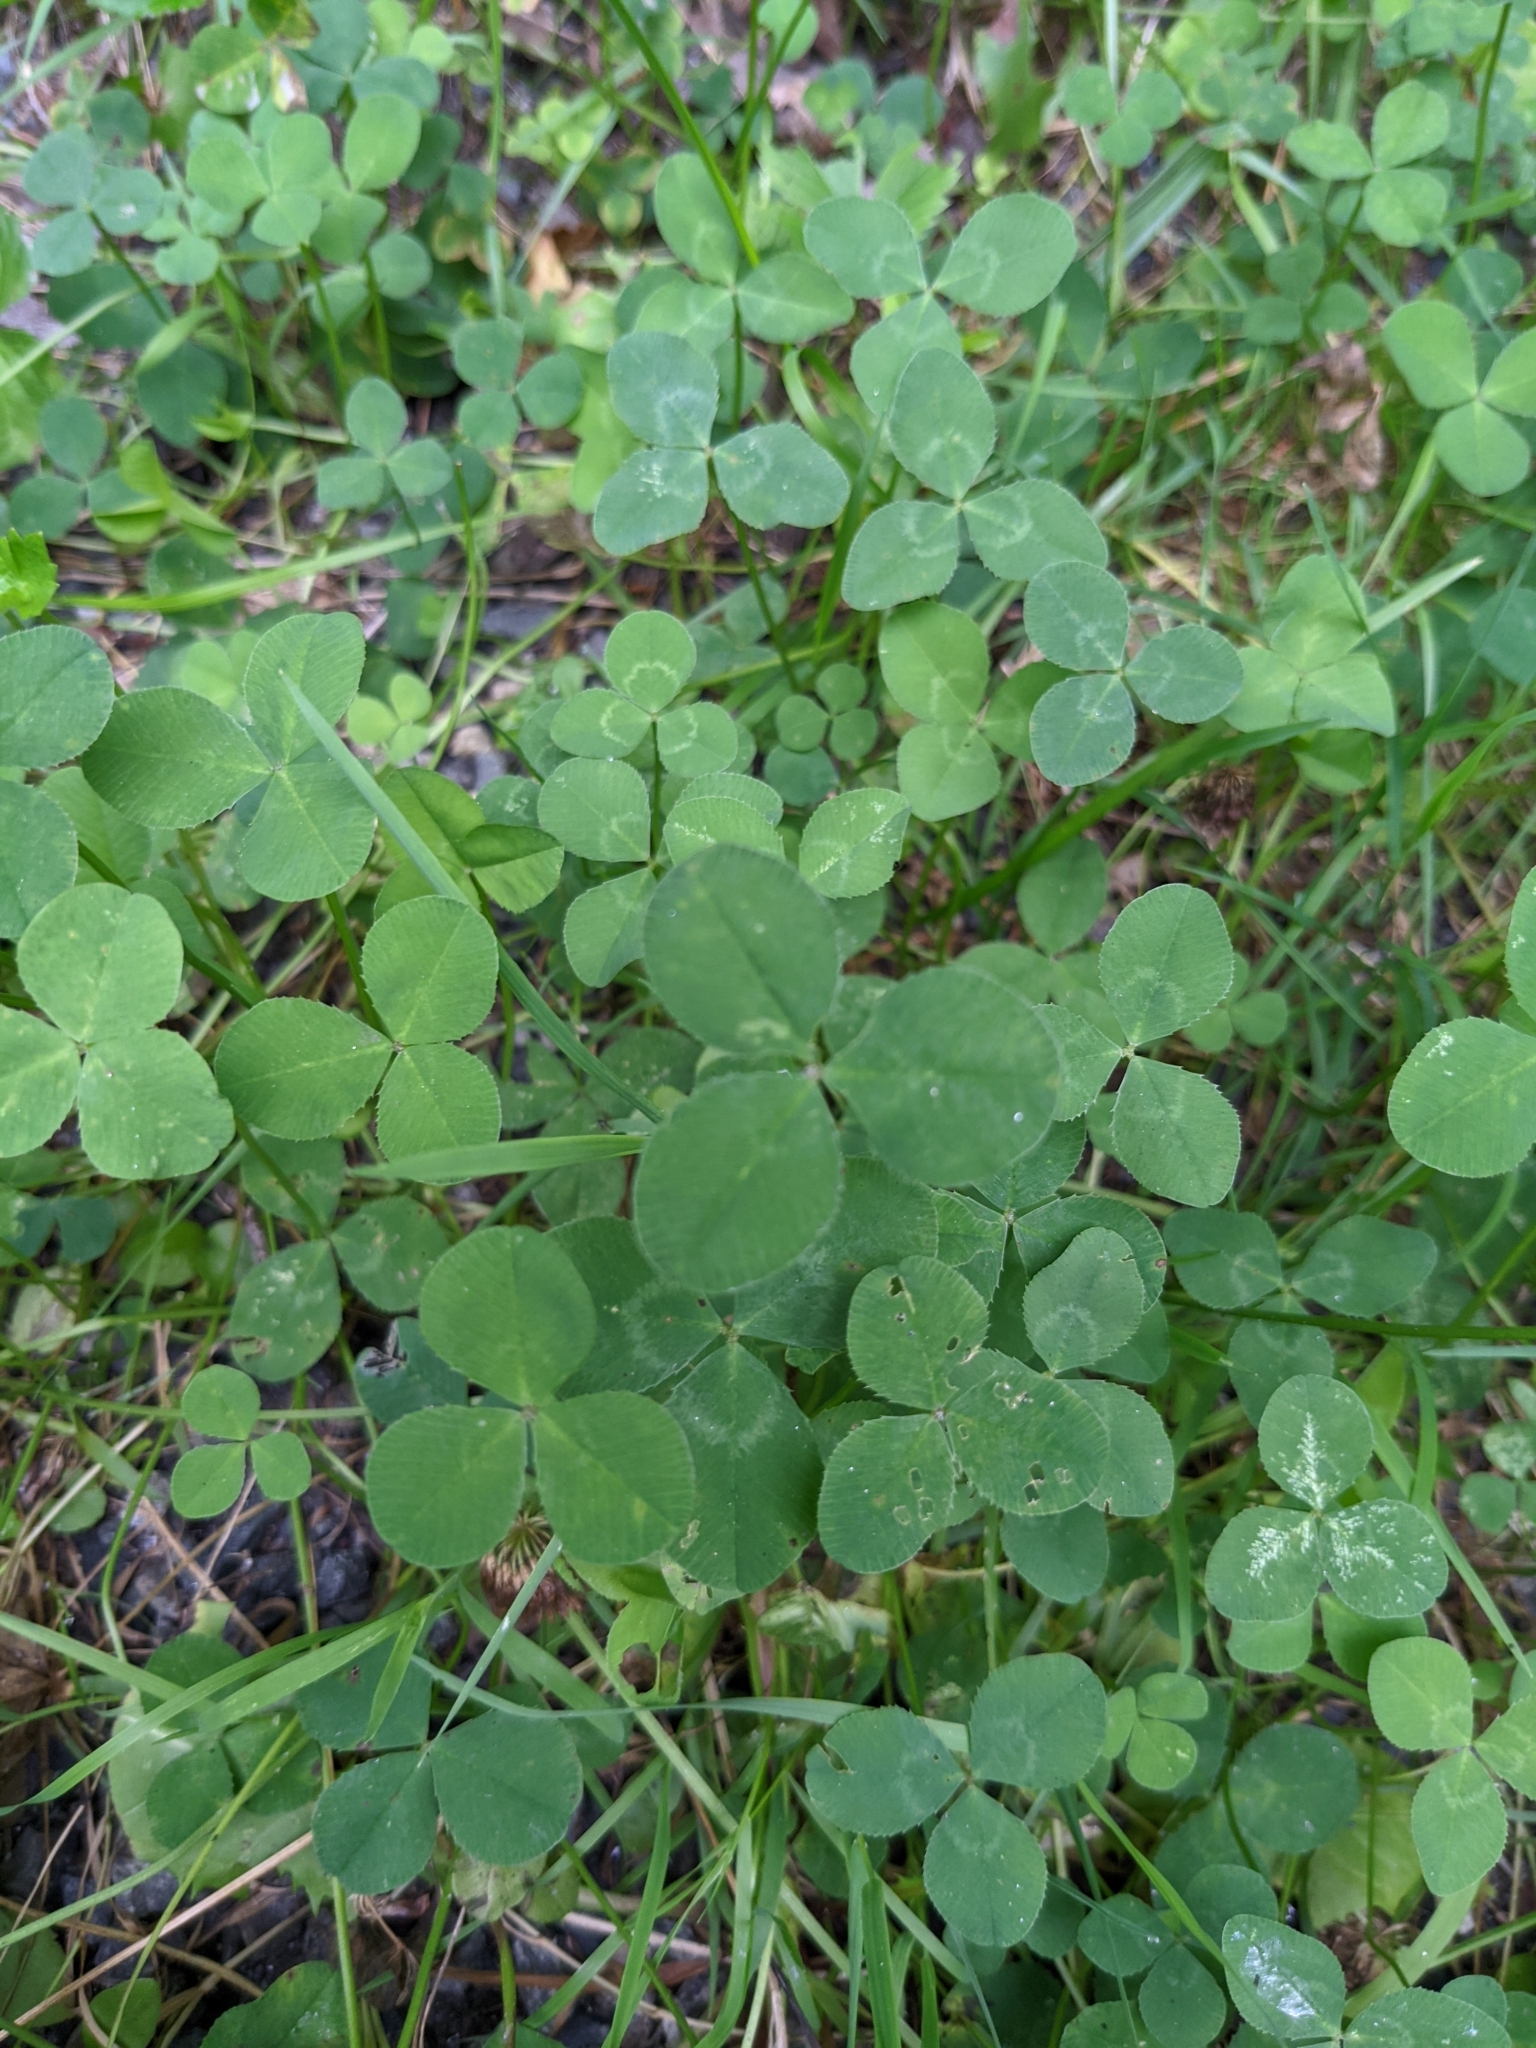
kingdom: Plantae
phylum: Tracheophyta
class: Magnoliopsida
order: Fabales
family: Fabaceae
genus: Trifolium
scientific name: Trifolium repens
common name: White clover
